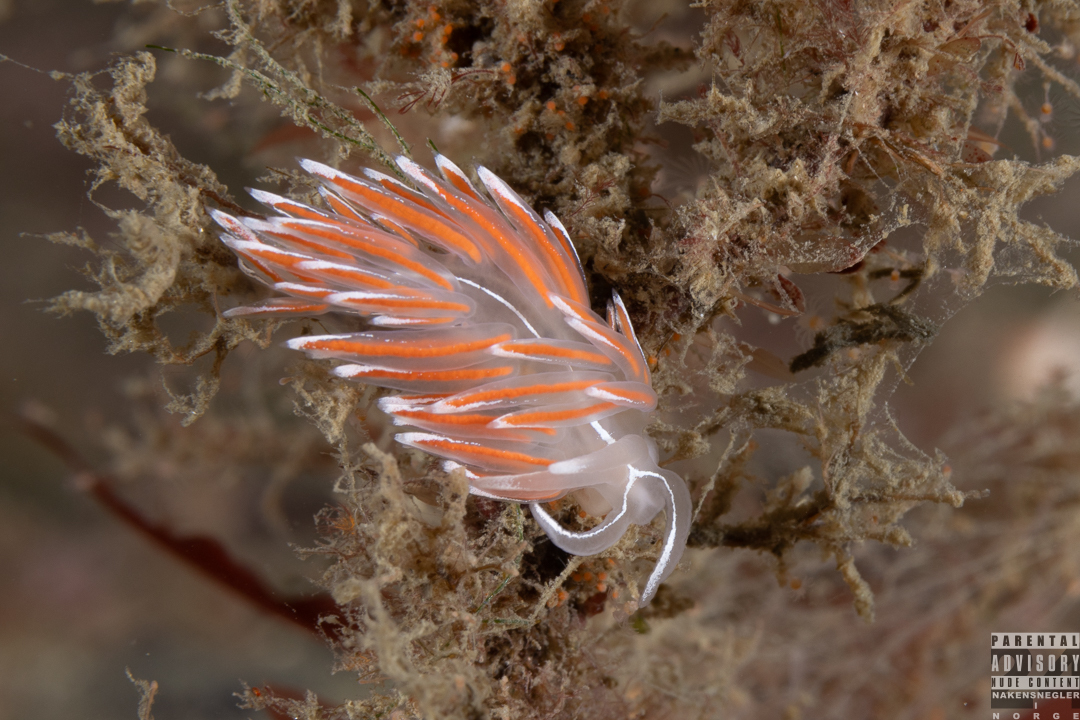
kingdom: Animalia
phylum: Mollusca
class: Gastropoda
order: Nudibranchia
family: Coryphellidae
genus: Coryphella
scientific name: Coryphella lineata
